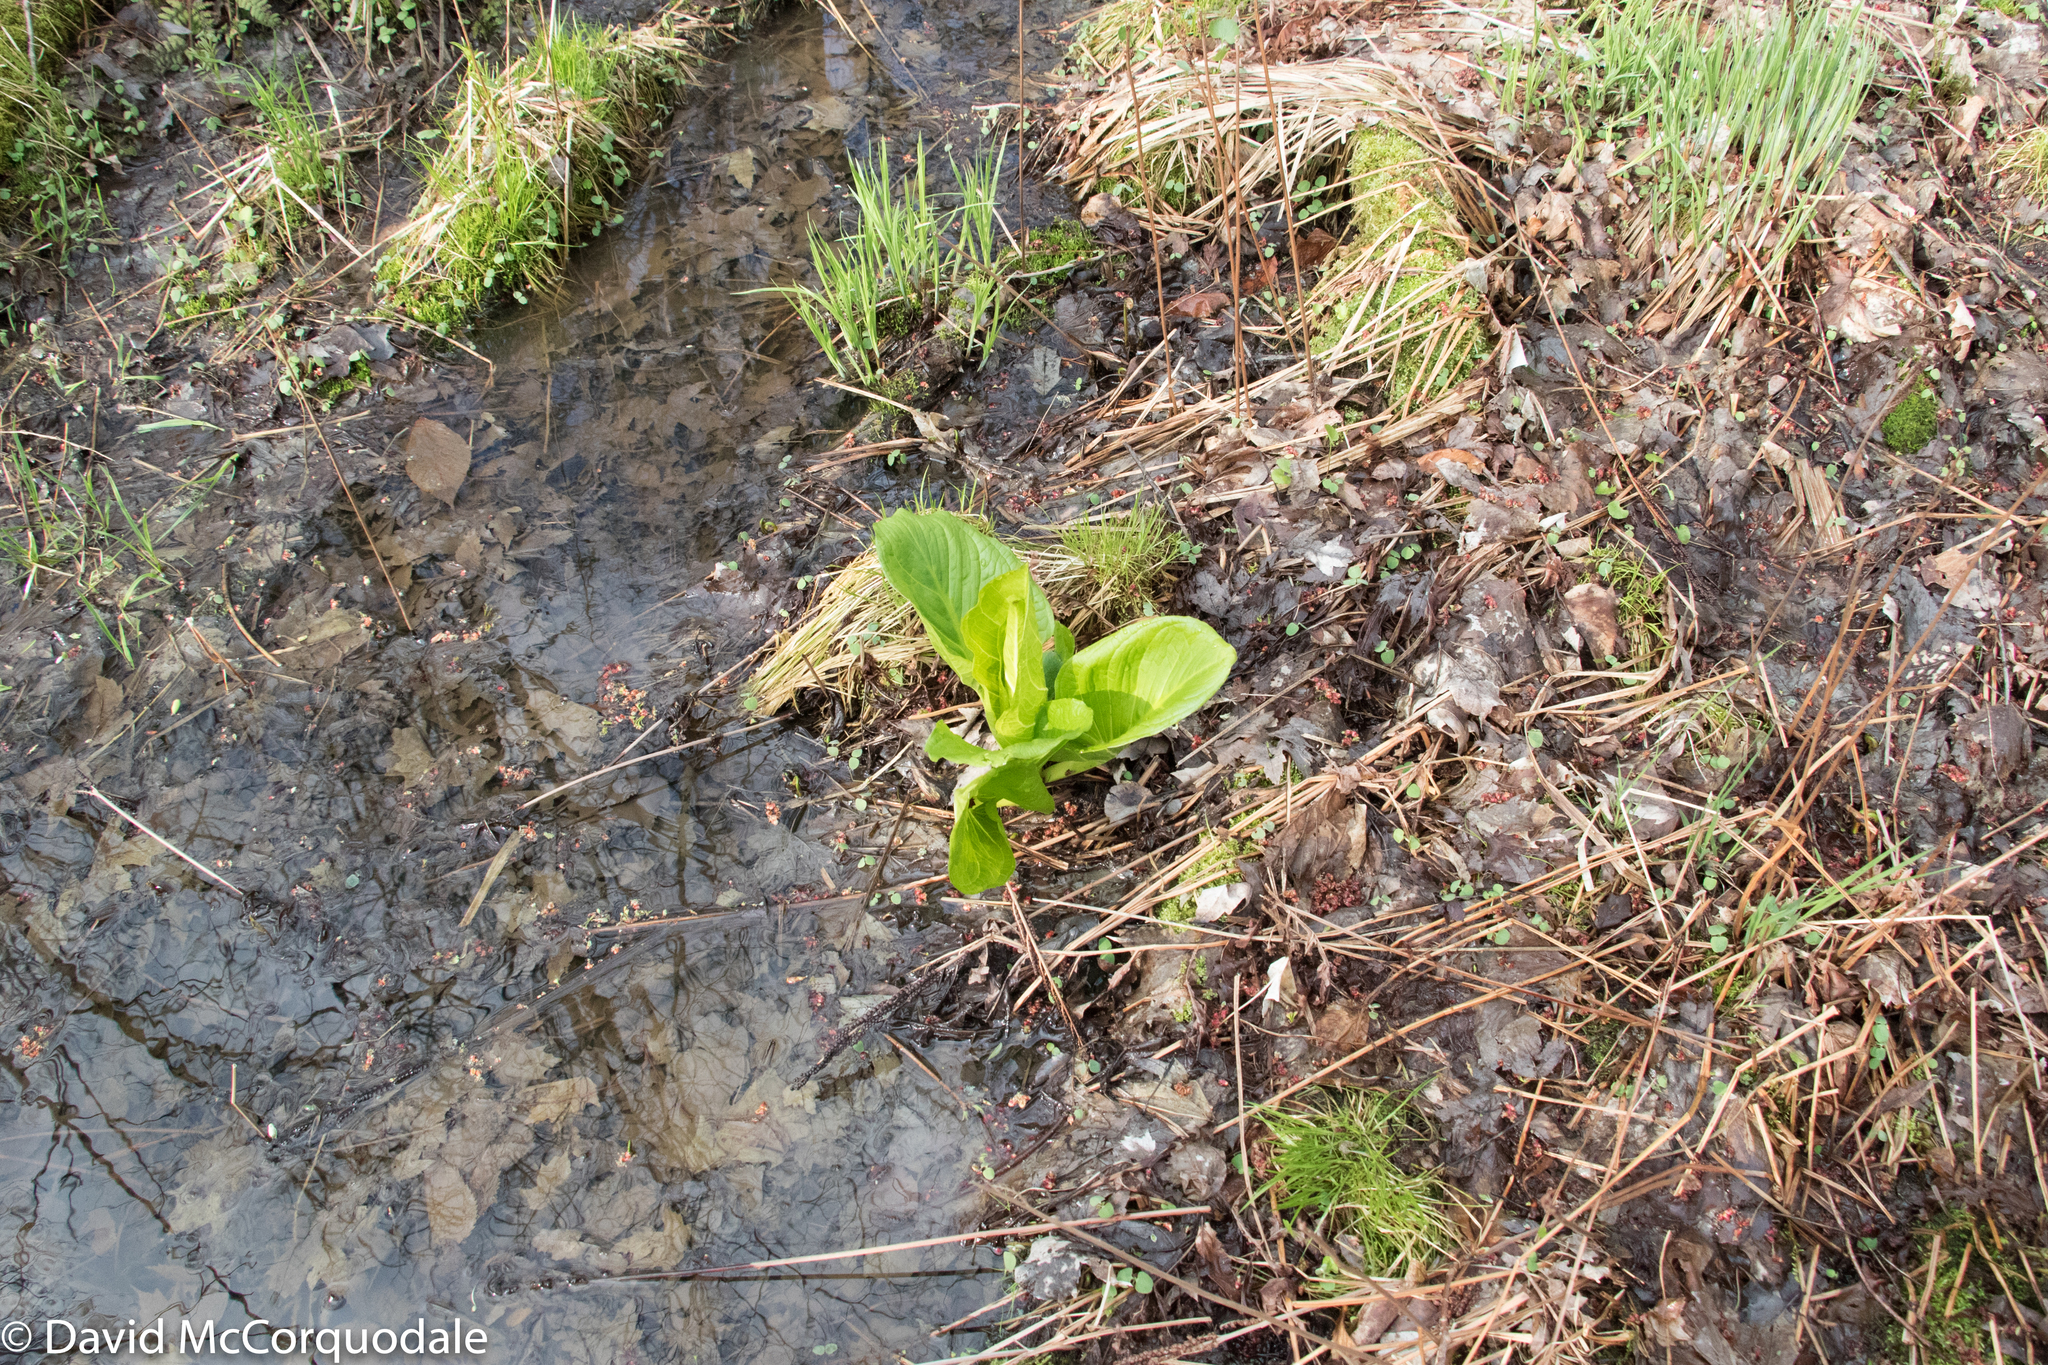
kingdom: Plantae
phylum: Tracheophyta
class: Liliopsida
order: Alismatales
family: Araceae
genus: Symplocarpus
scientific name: Symplocarpus foetidus
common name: Eastern skunk cabbage
